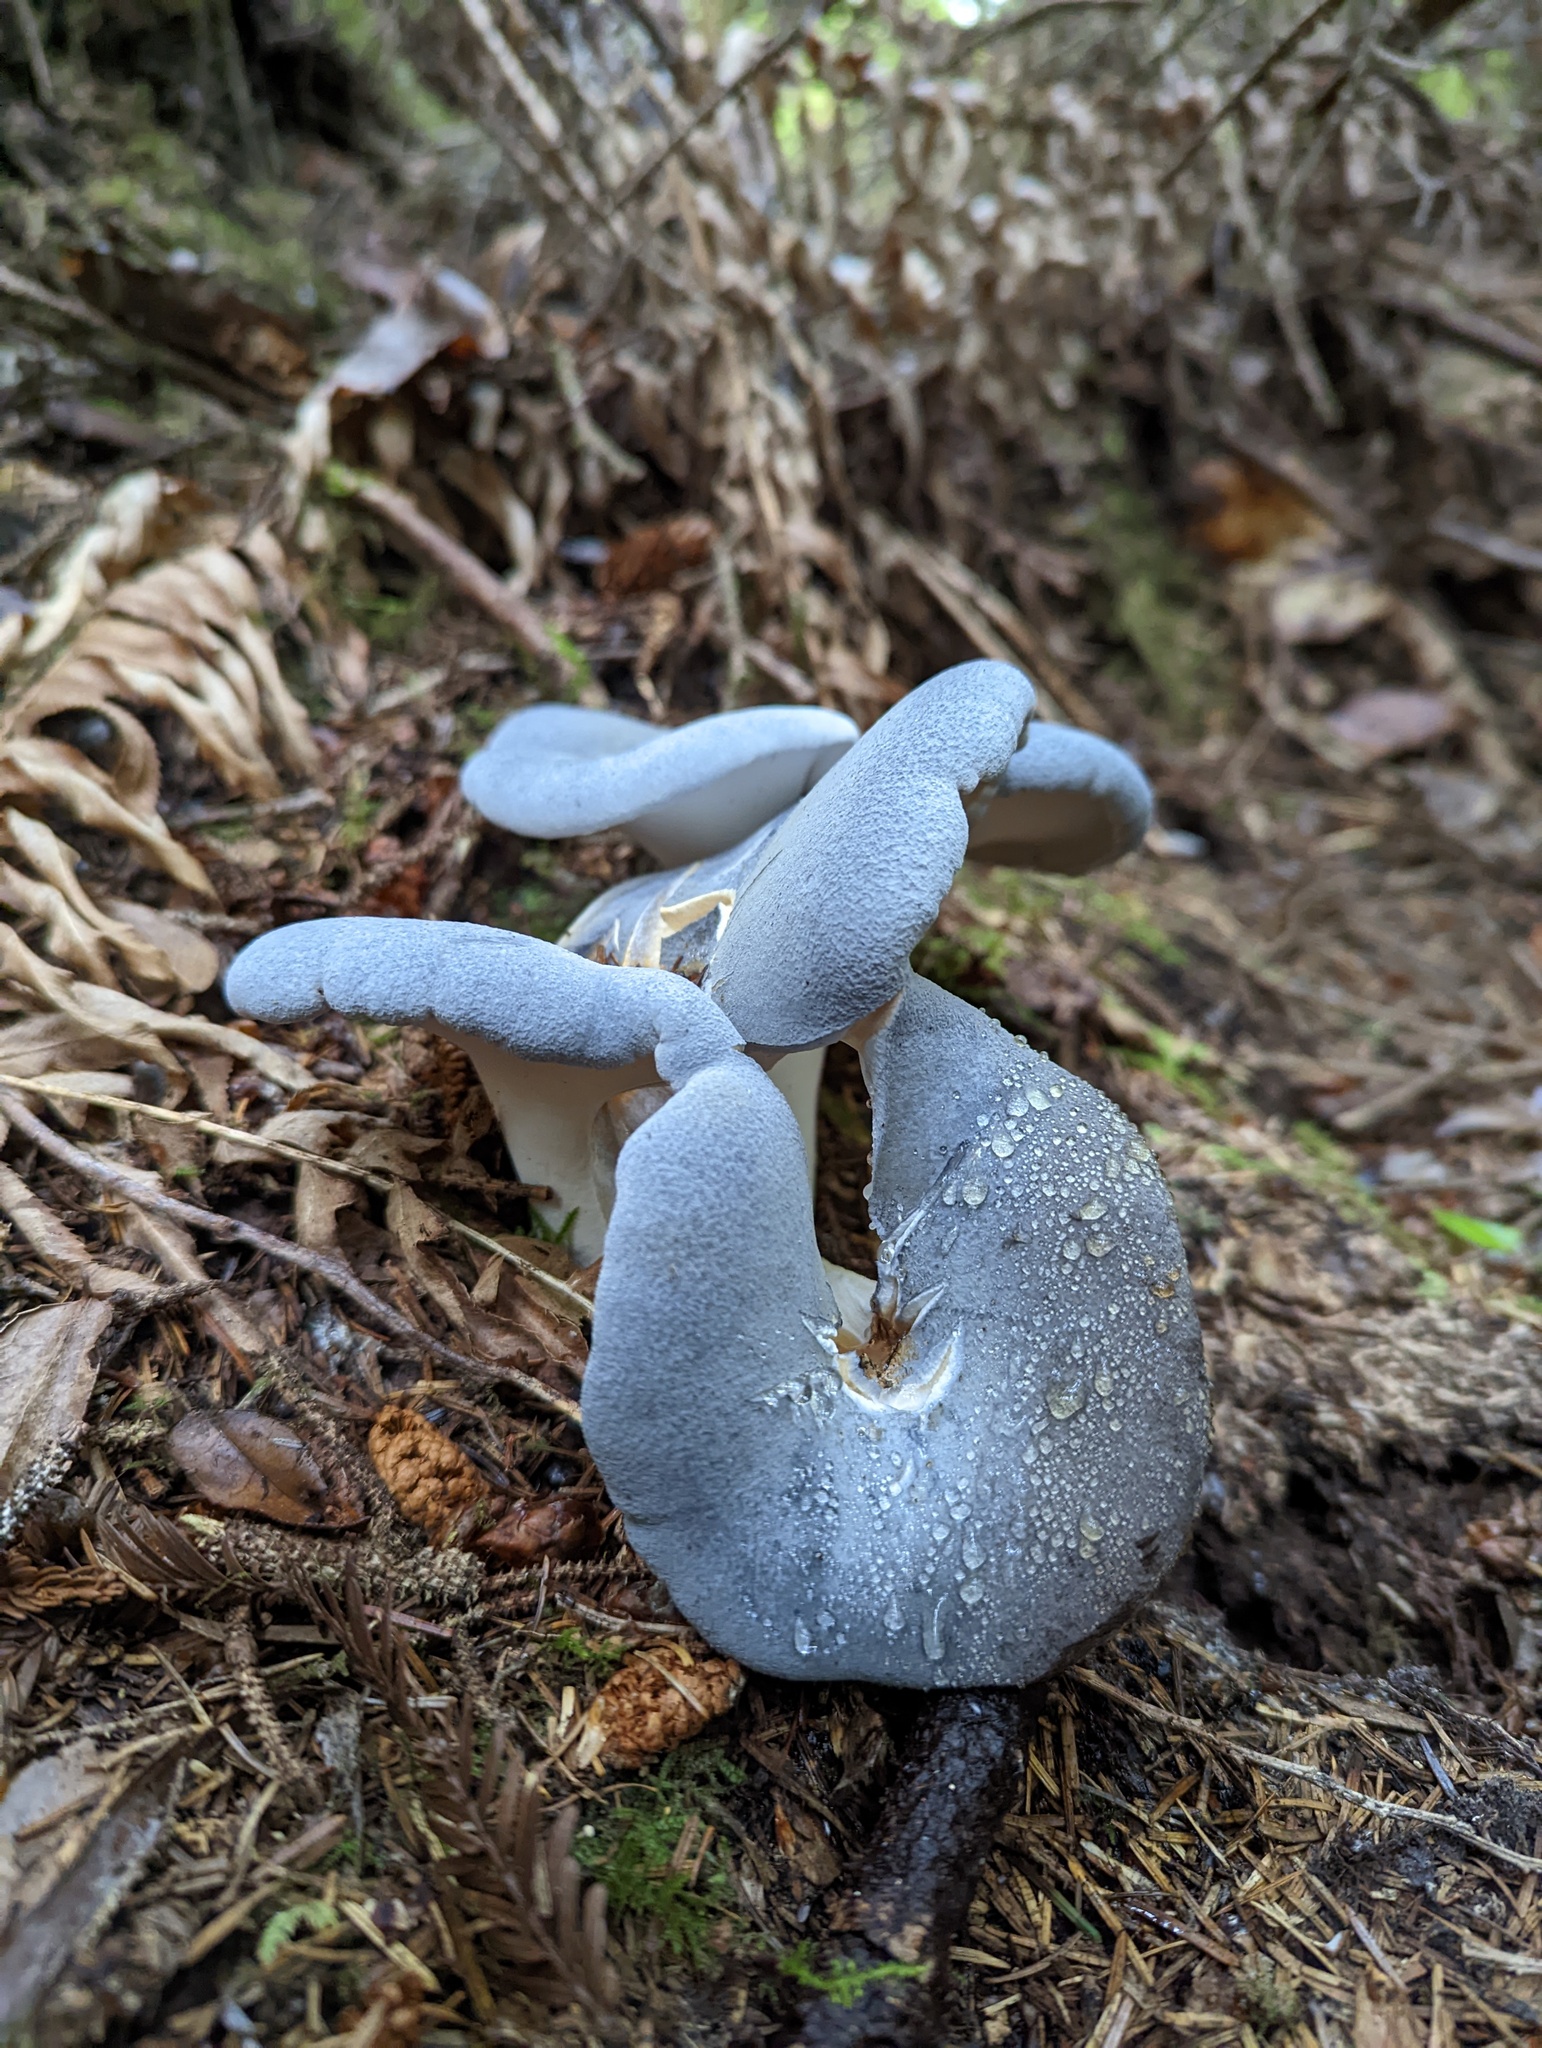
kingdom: Fungi
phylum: Basidiomycota
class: Agaricomycetes
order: Russulales
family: Albatrellaceae
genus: Albatrellopsis
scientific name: Albatrellopsis flettii
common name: Blue polypore
